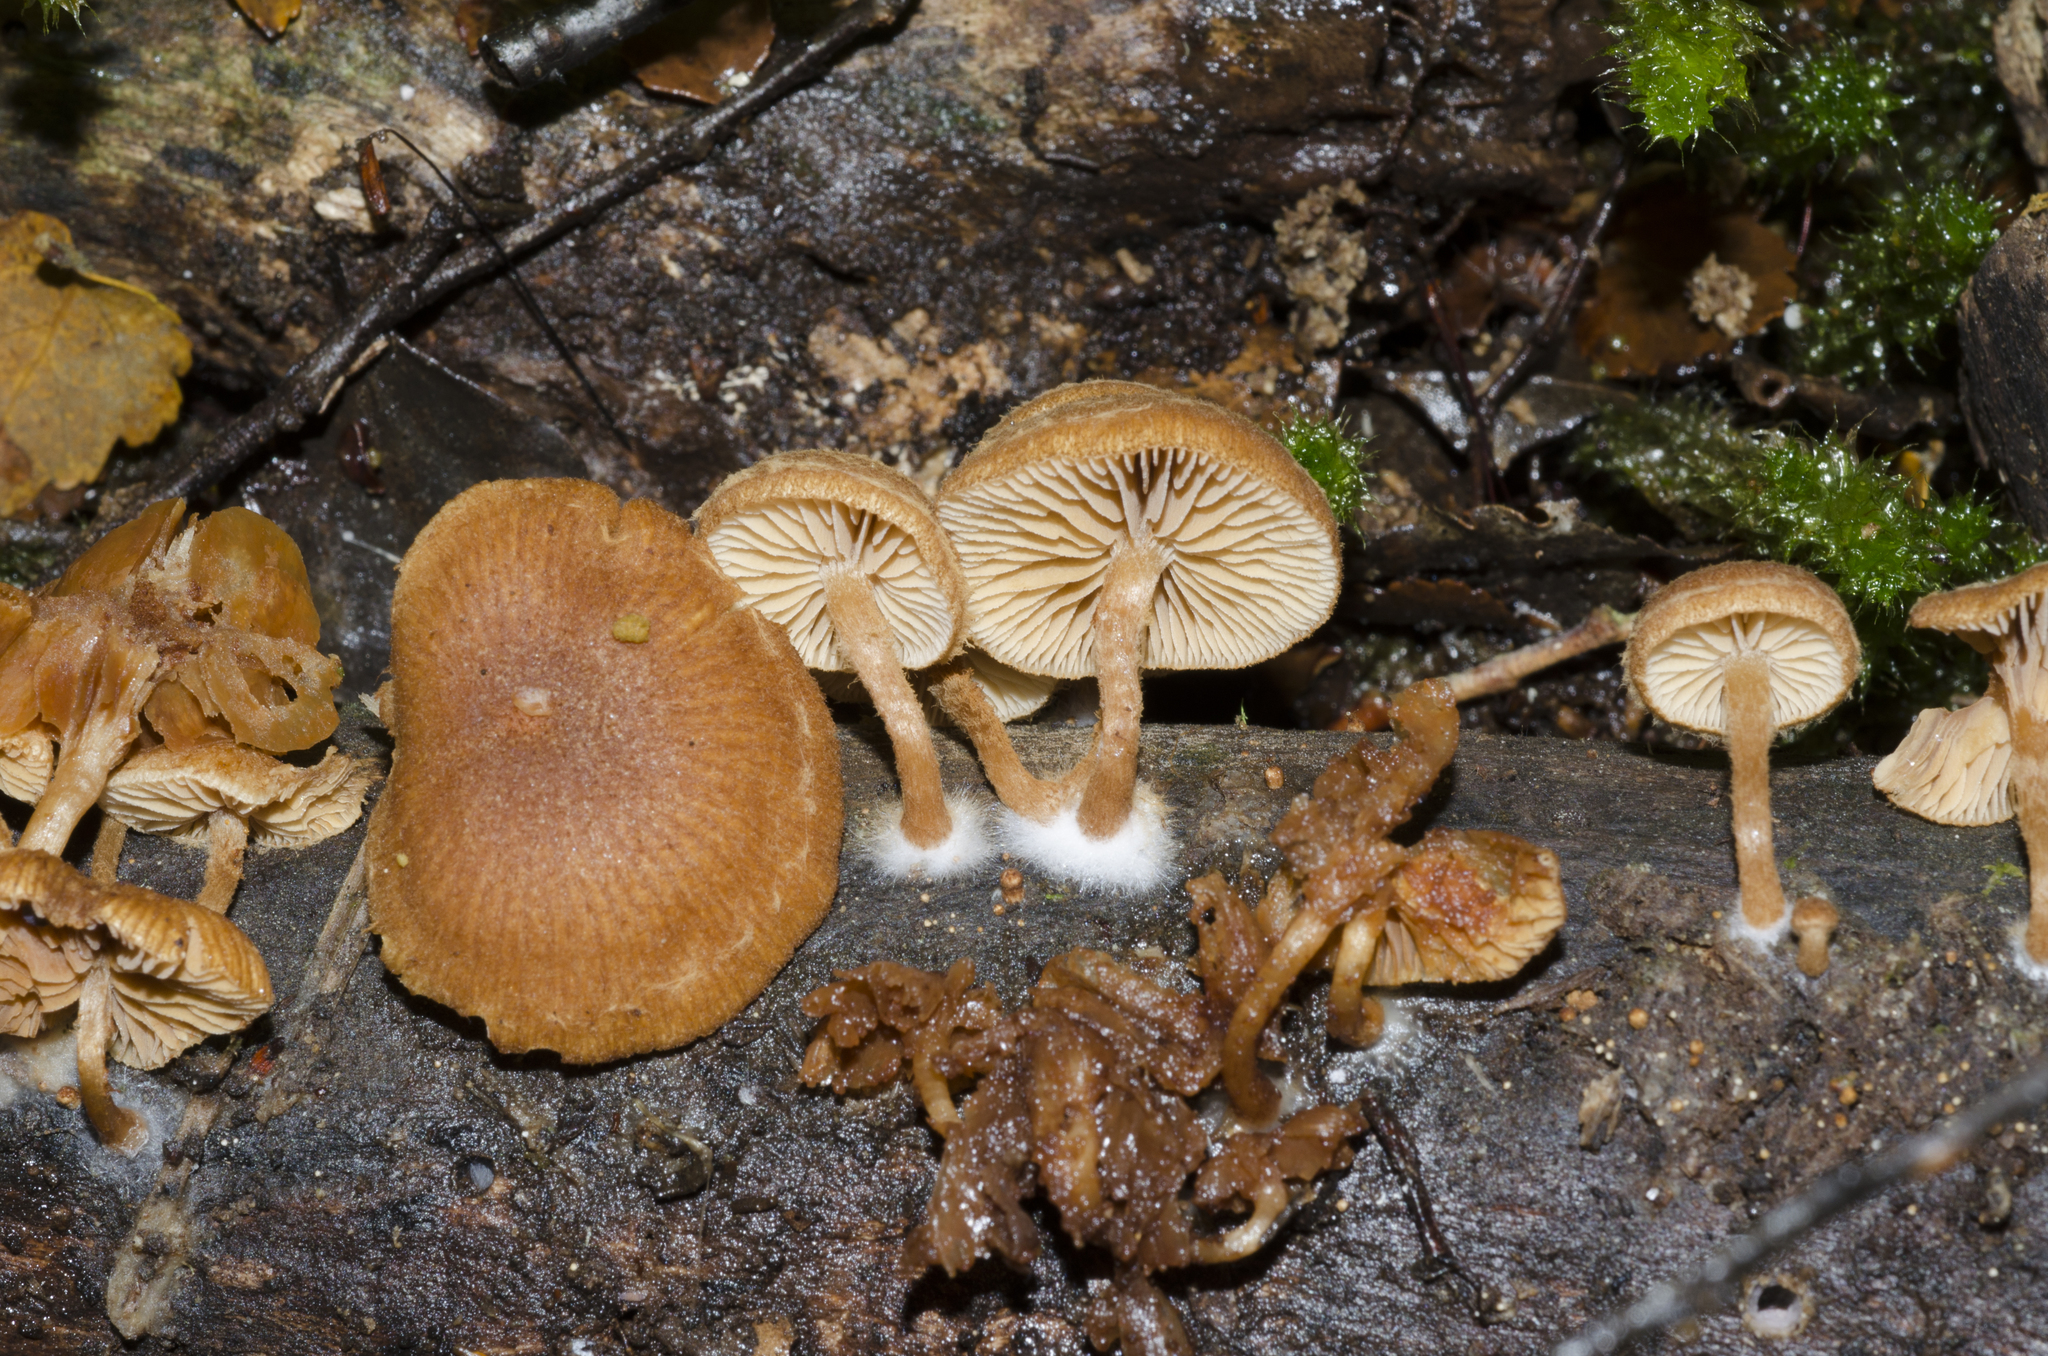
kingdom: Fungi
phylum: Basidiomycota
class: Agaricomycetes
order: Agaricales
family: Tubariaceae
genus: Tubaria
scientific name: Tubaria aureosimilis
